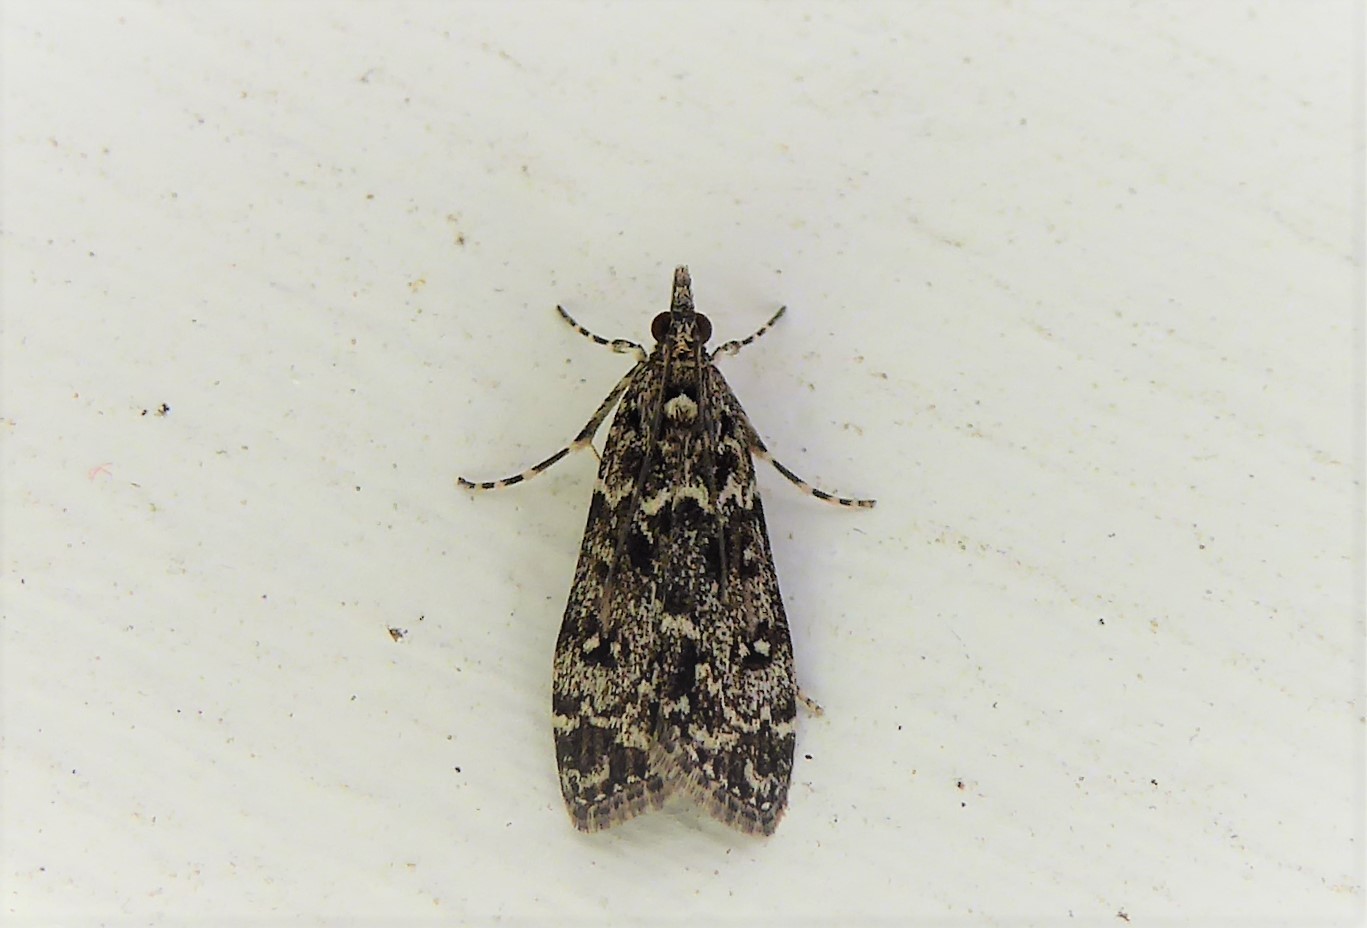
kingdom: Animalia
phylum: Arthropoda
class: Insecta
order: Lepidoptera
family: Crambidae
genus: Eudonia
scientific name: Eudonia philerga
